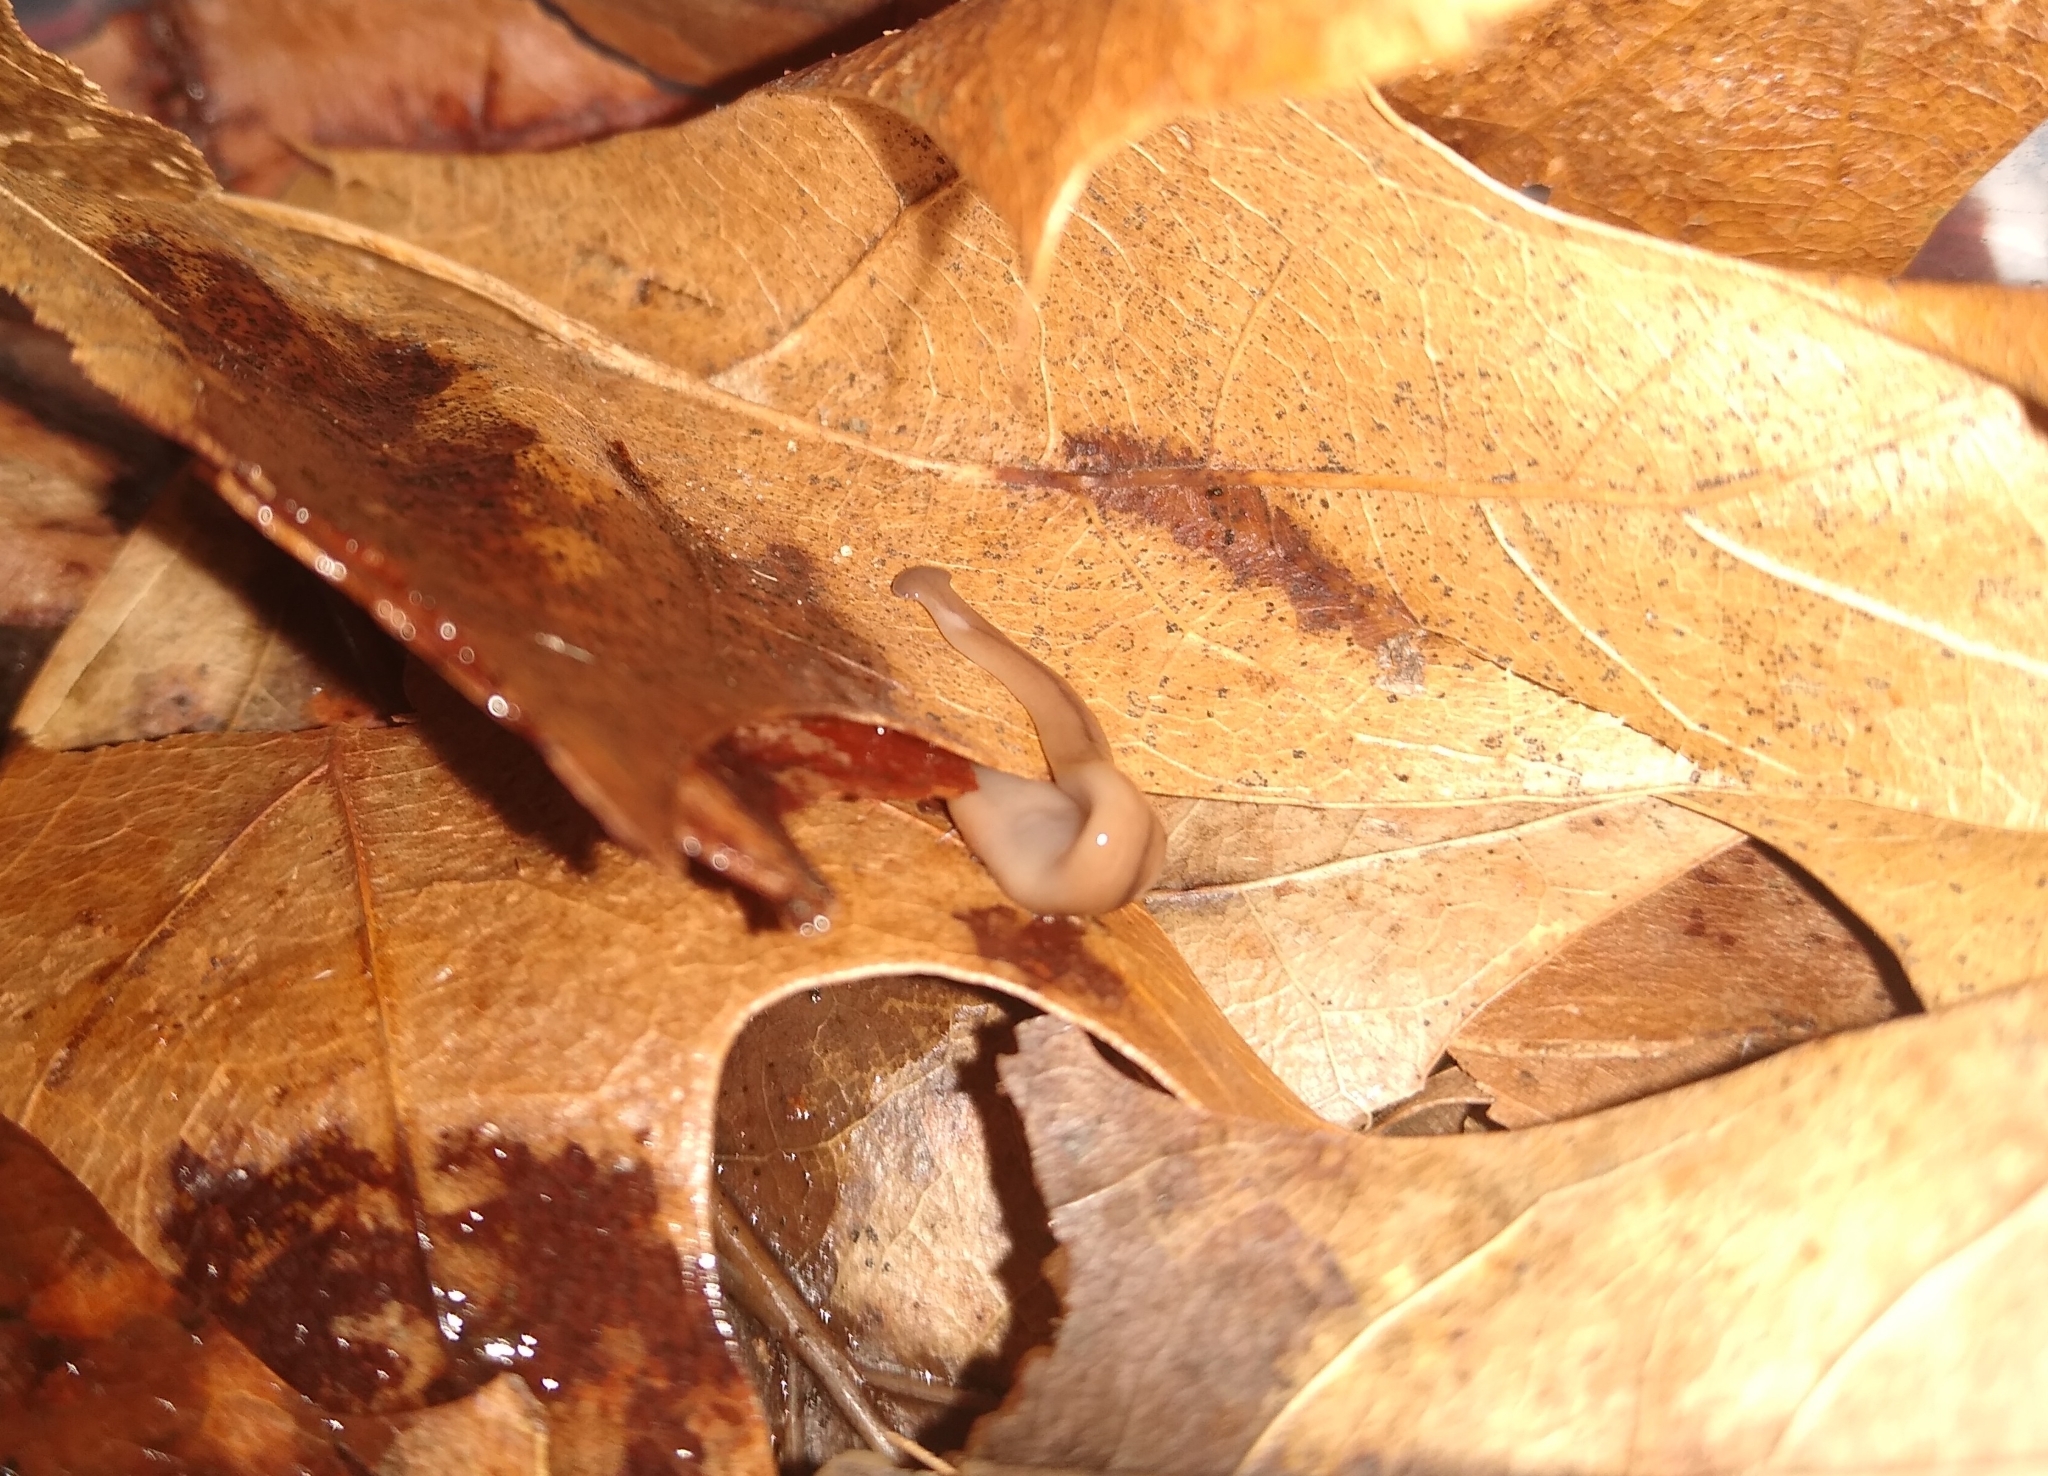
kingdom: Animalia
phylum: Platyhelminthes
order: Tricladida
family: Geoplanidae
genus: Bipalium
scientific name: Bipalium adventitium
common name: Land planarian
